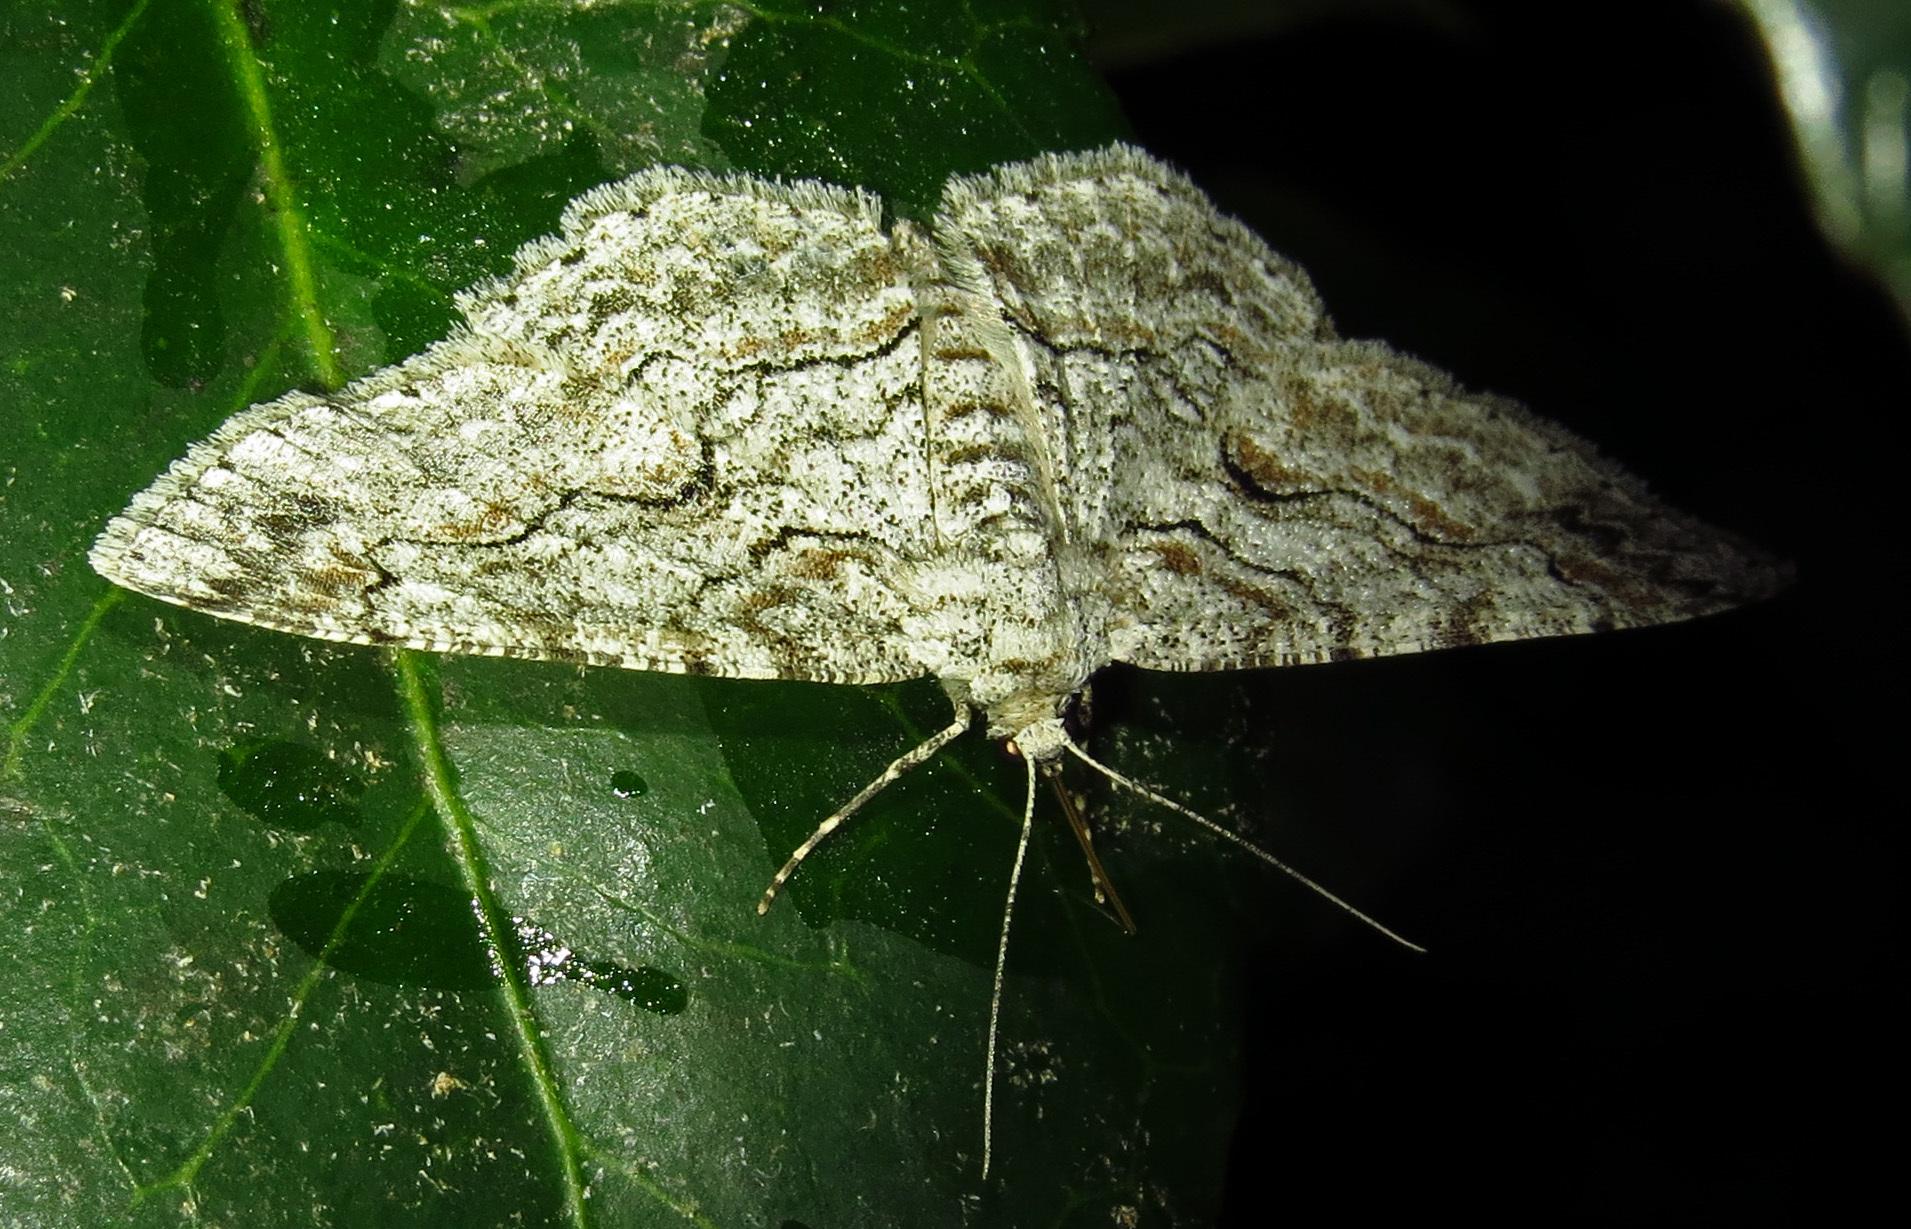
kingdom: Animalia
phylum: Arthropoda
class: Insecta
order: Lepidoptera
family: Geometridae
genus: Iridopsis
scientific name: Iridopsis defectaria
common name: Brown-shaded gray
